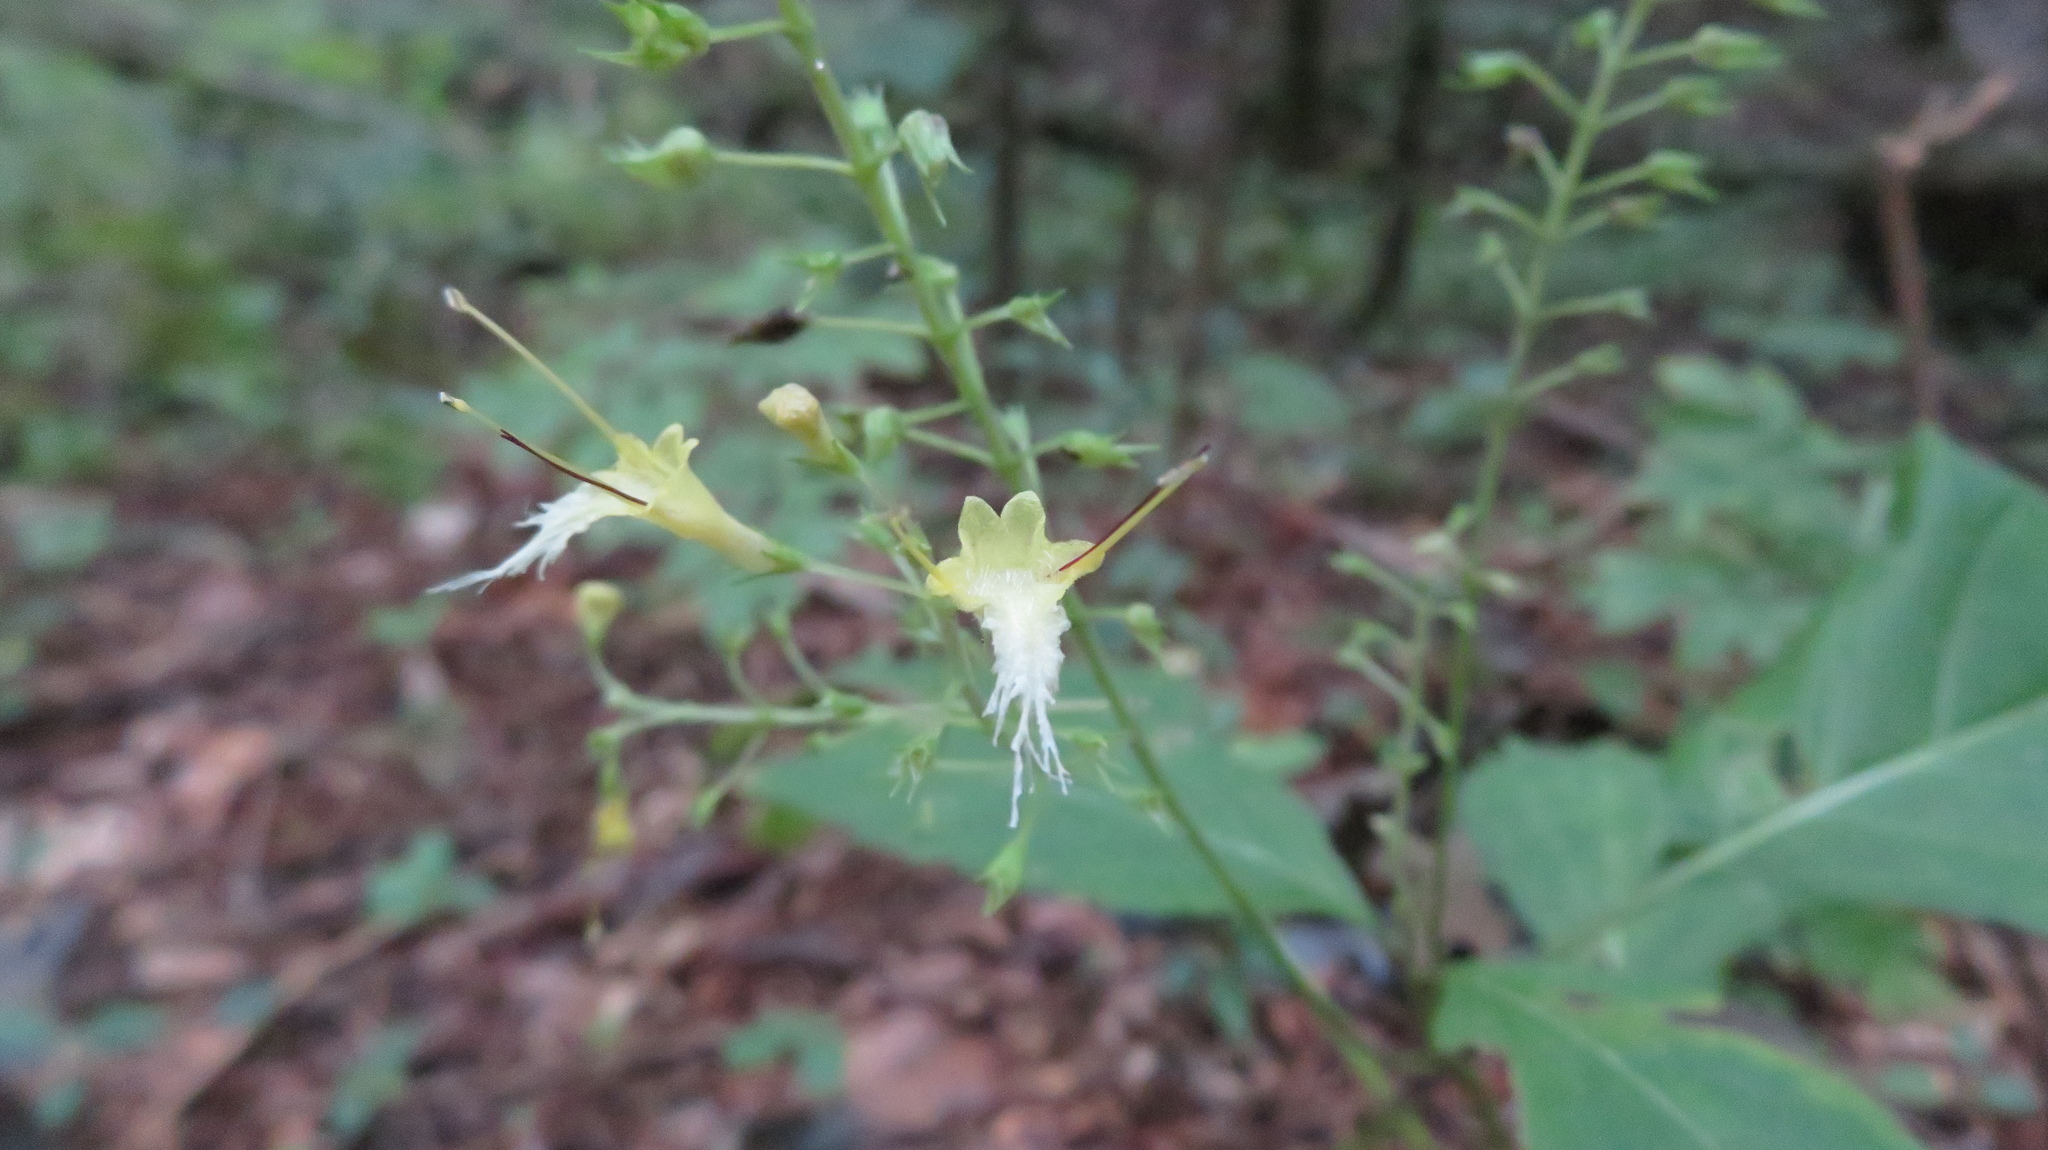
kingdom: Plantae
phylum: Tracheophyta
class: Magnoliopsida
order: Lamiales
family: Lamiaceae
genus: Collinsonia
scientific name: Collinsonia canadensis
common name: Northern horsebalm
